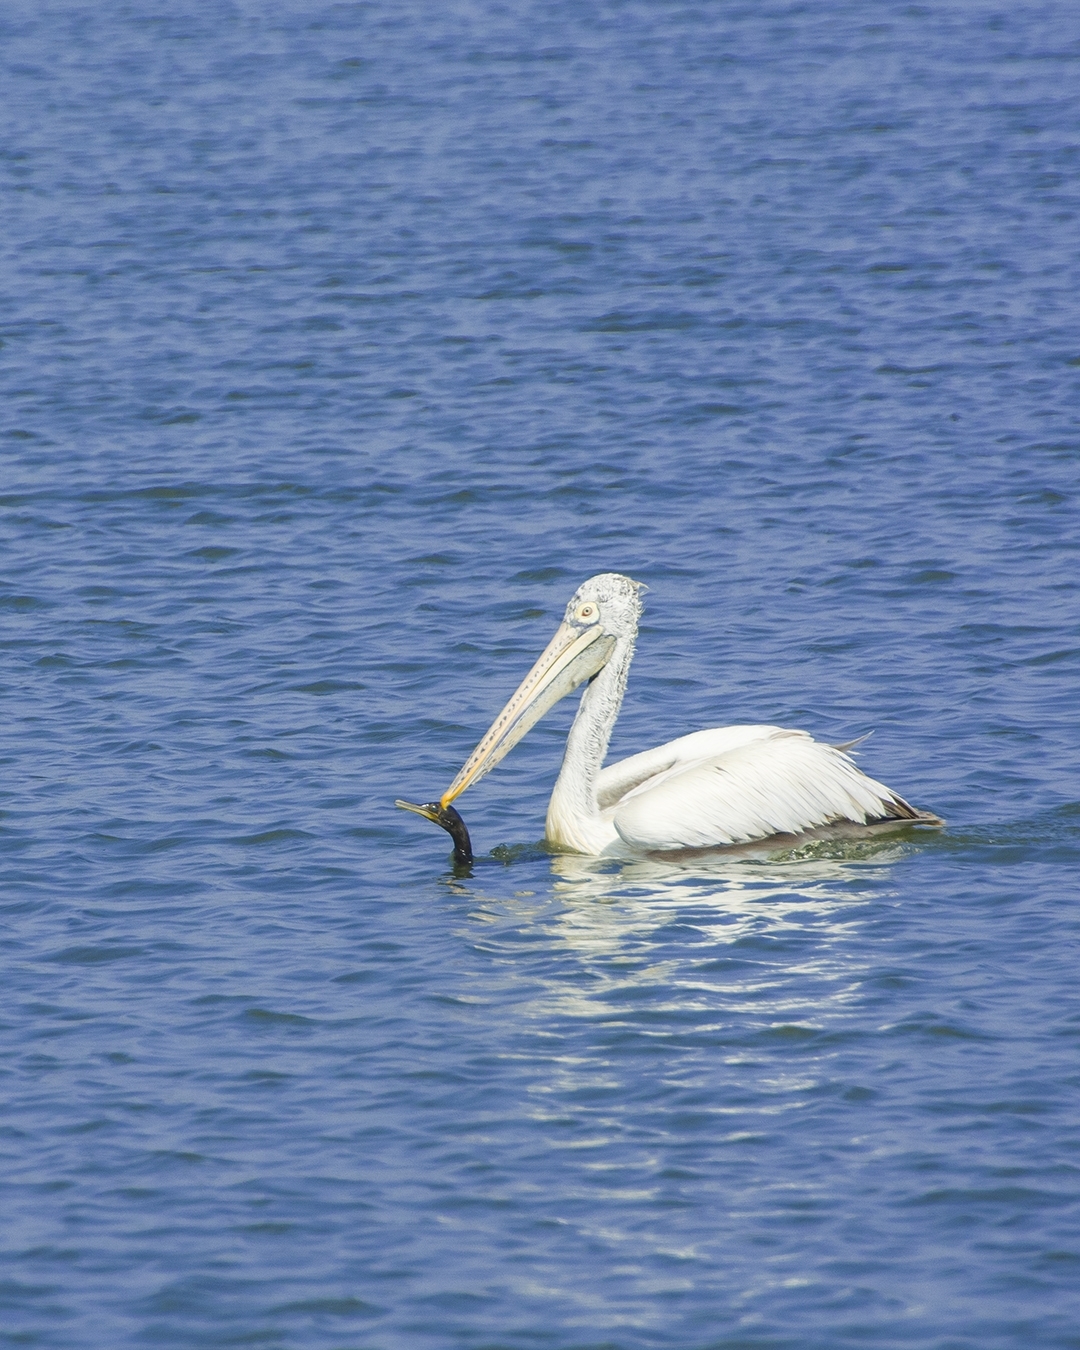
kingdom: Animalia
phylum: Chordata
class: Aves
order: Pelecaniformes
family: Pelecanidae
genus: Pelecanus
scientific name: Pelecanus philippensis
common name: Spot-billed pelican
